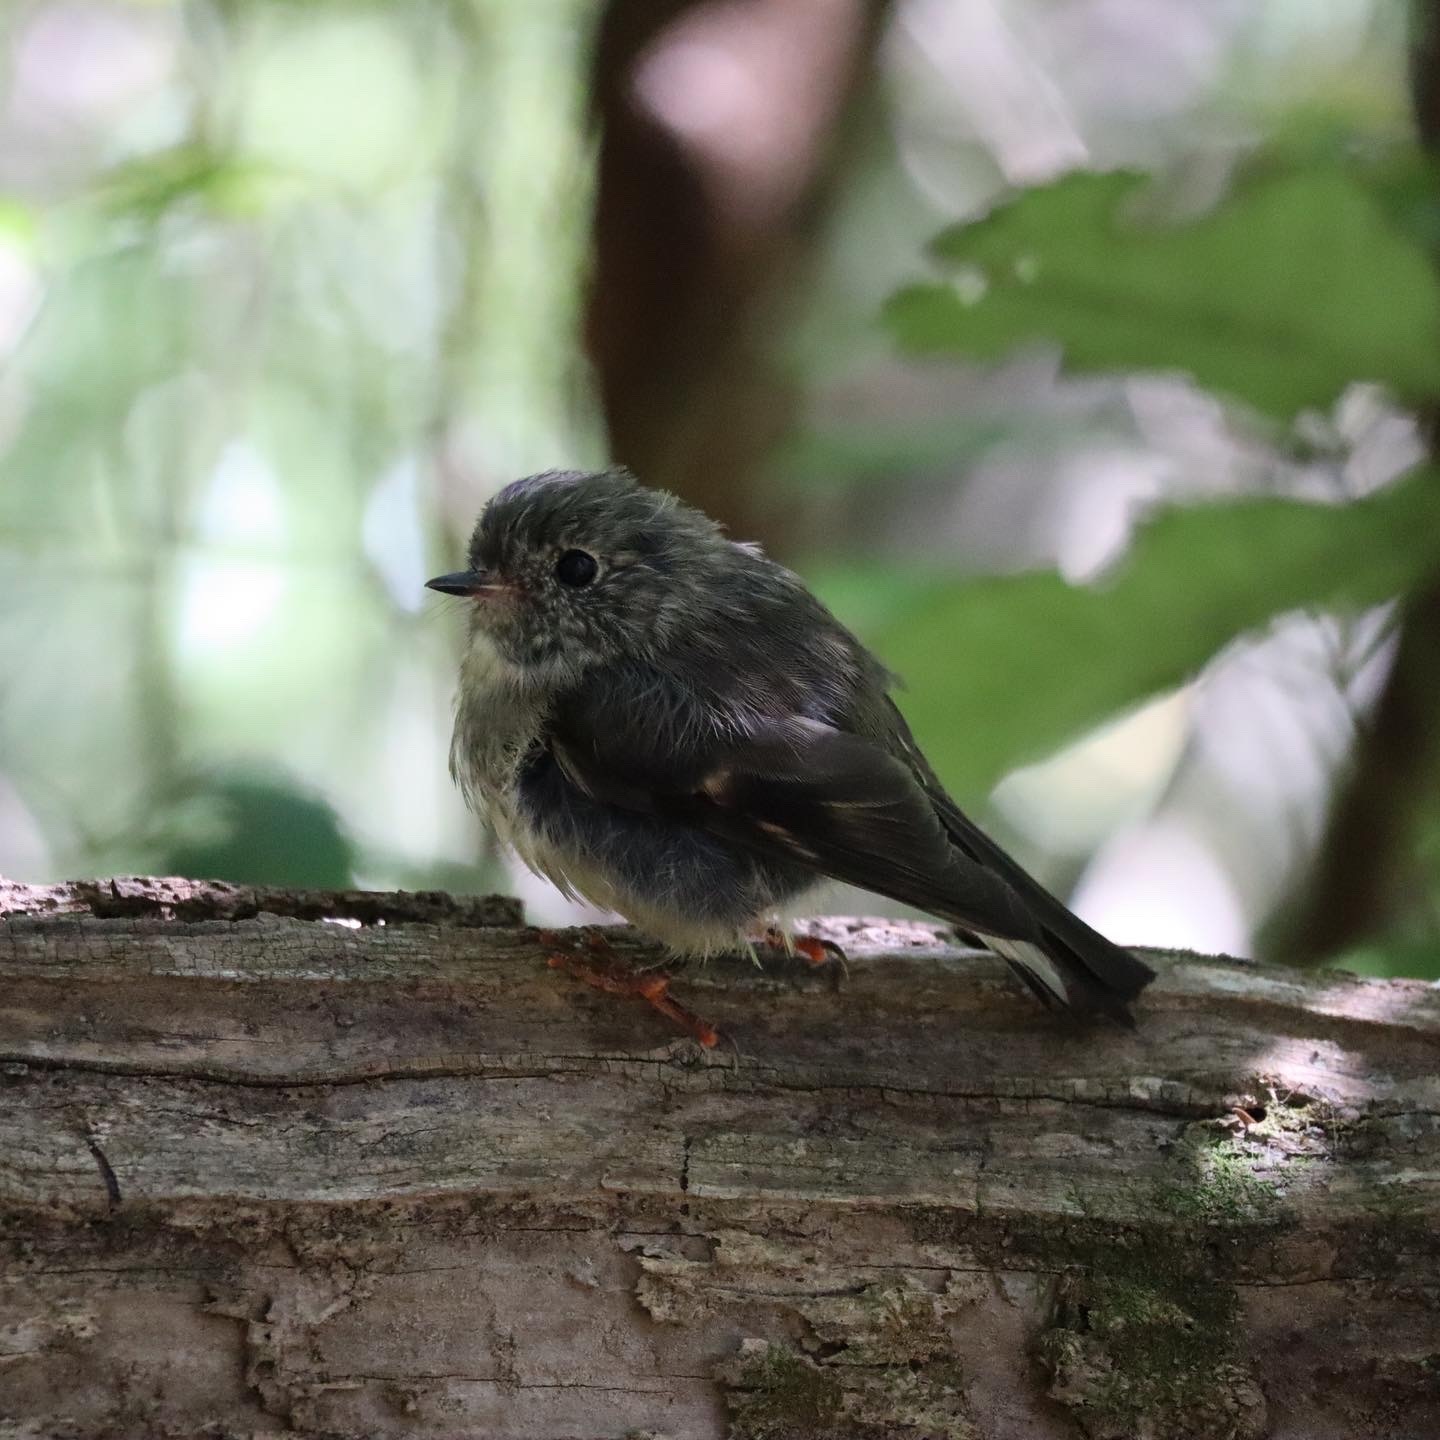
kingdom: Animalia
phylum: Chordata
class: Aves
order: Passeriformes
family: Petroicidae
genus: Petroica
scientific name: Petroica macrocephala
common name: Tomtit
